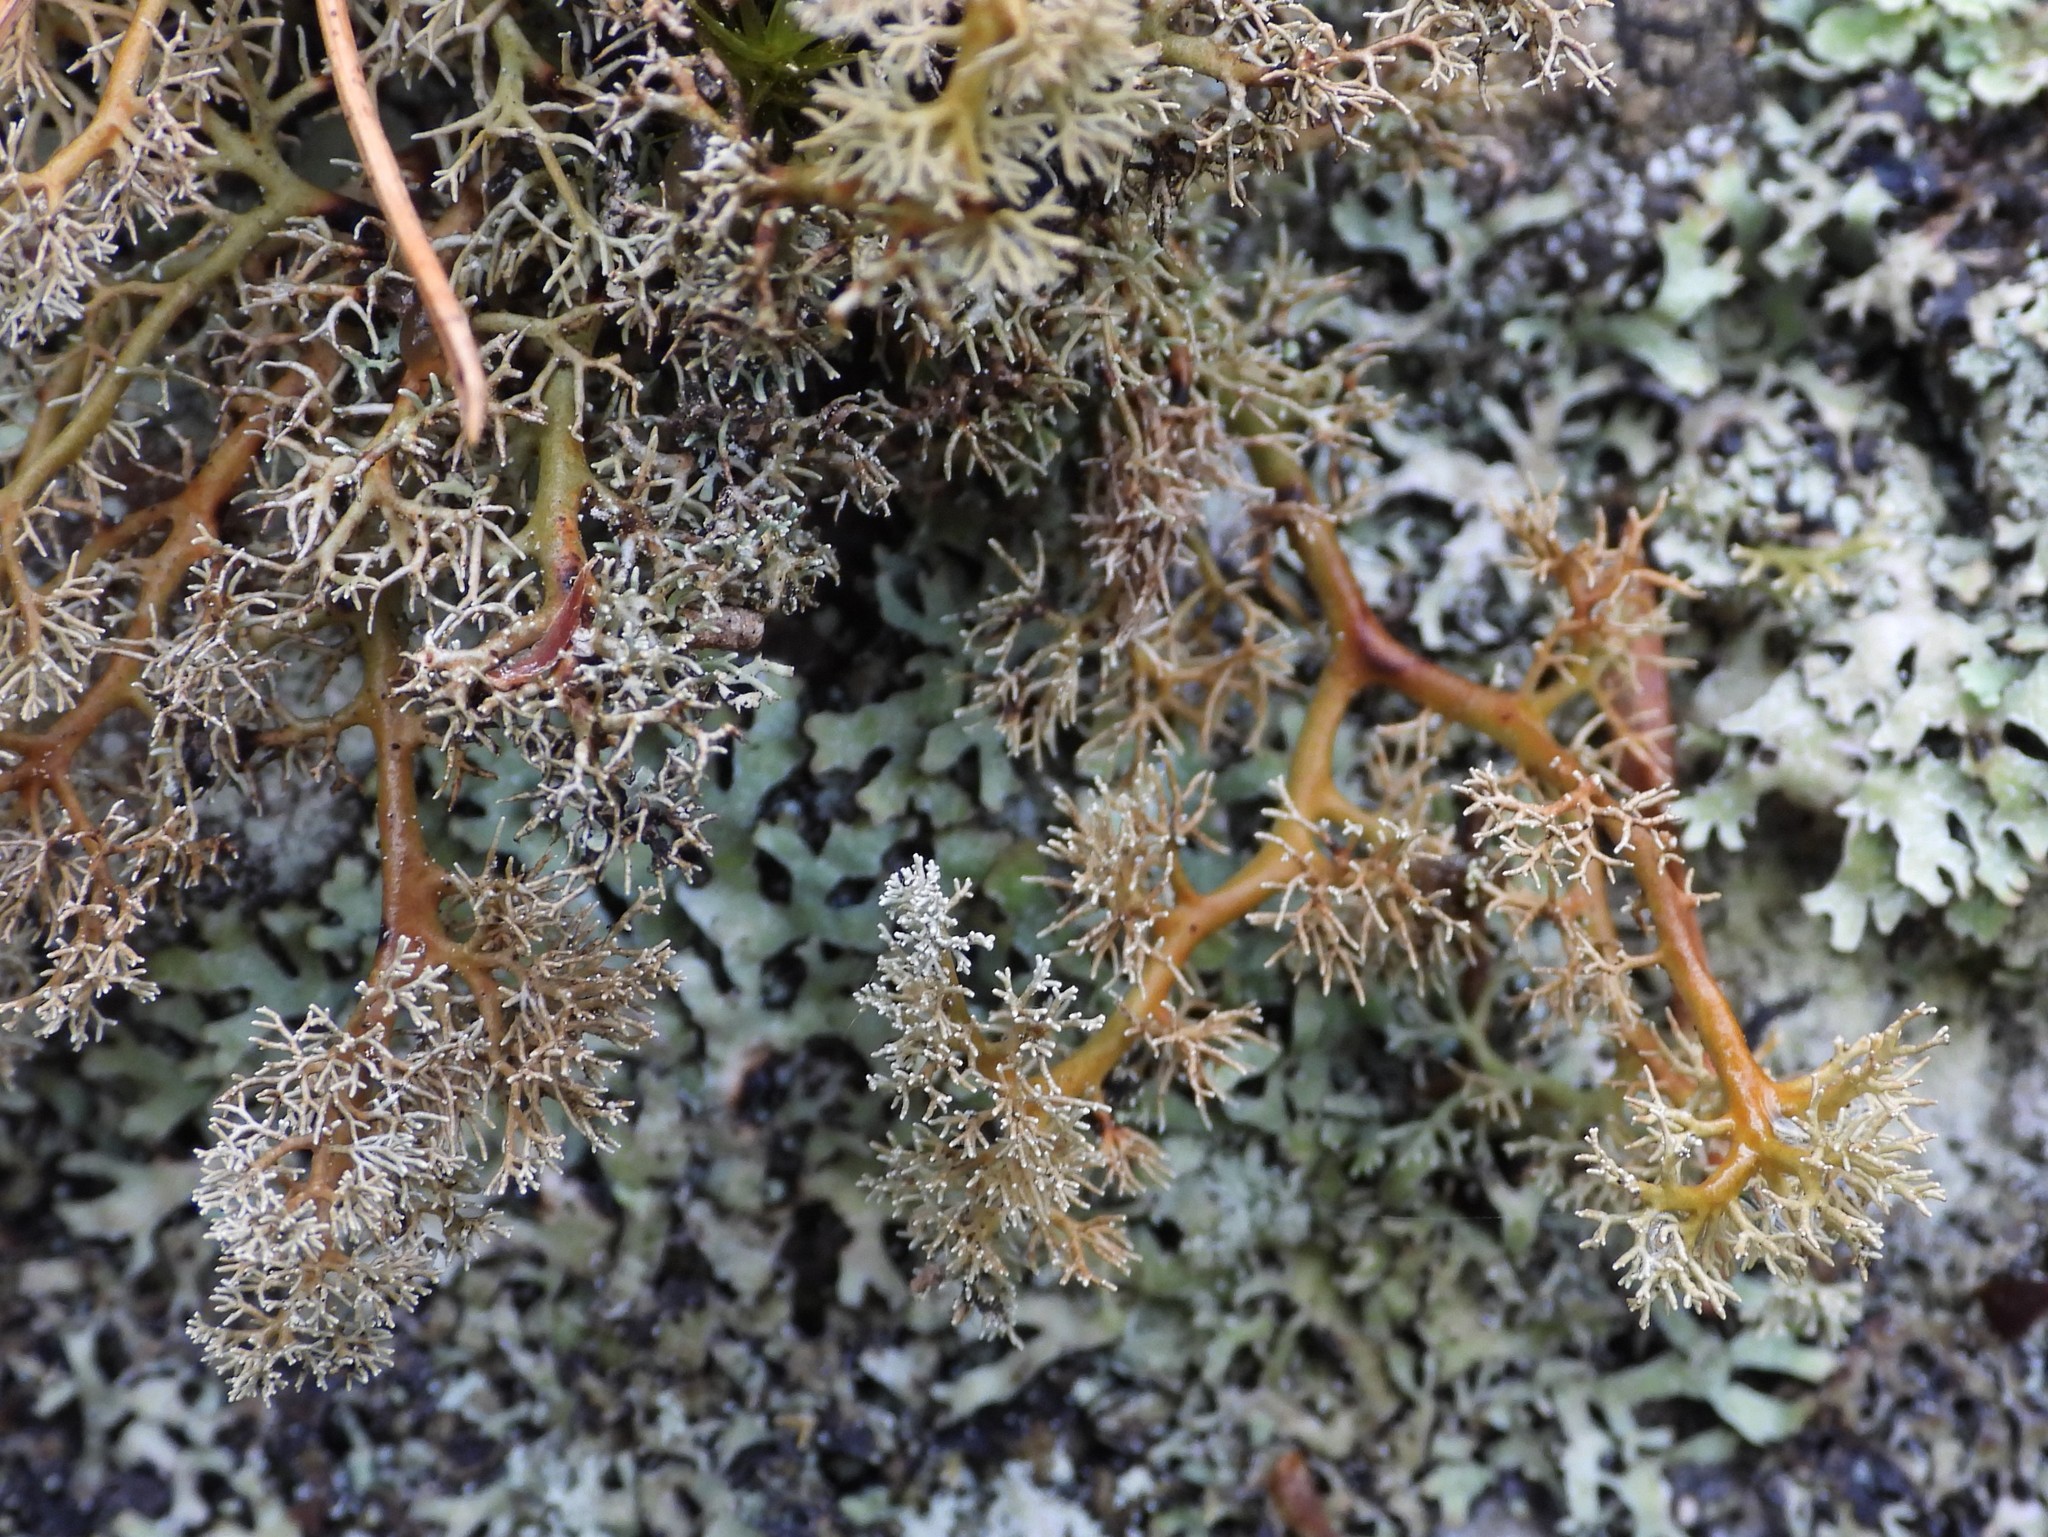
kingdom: Fungi
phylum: Ascomycota
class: Lecanoromycetes
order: Lecanorales
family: Sphaerophoraceae
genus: Sphaerophorus
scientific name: Sphaerophorus globosus
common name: Globe ball lichen
